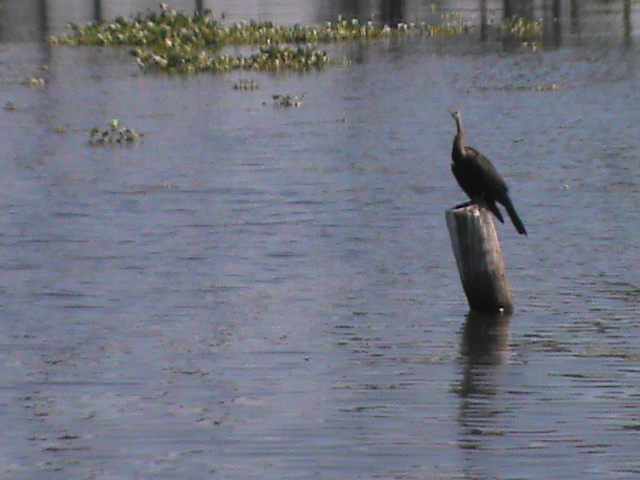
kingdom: Animalia
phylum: Chordata
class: Aves
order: Suliformes
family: Anhingidae
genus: Anhinga
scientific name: Anhinga melanogaster
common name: Oriental darter
